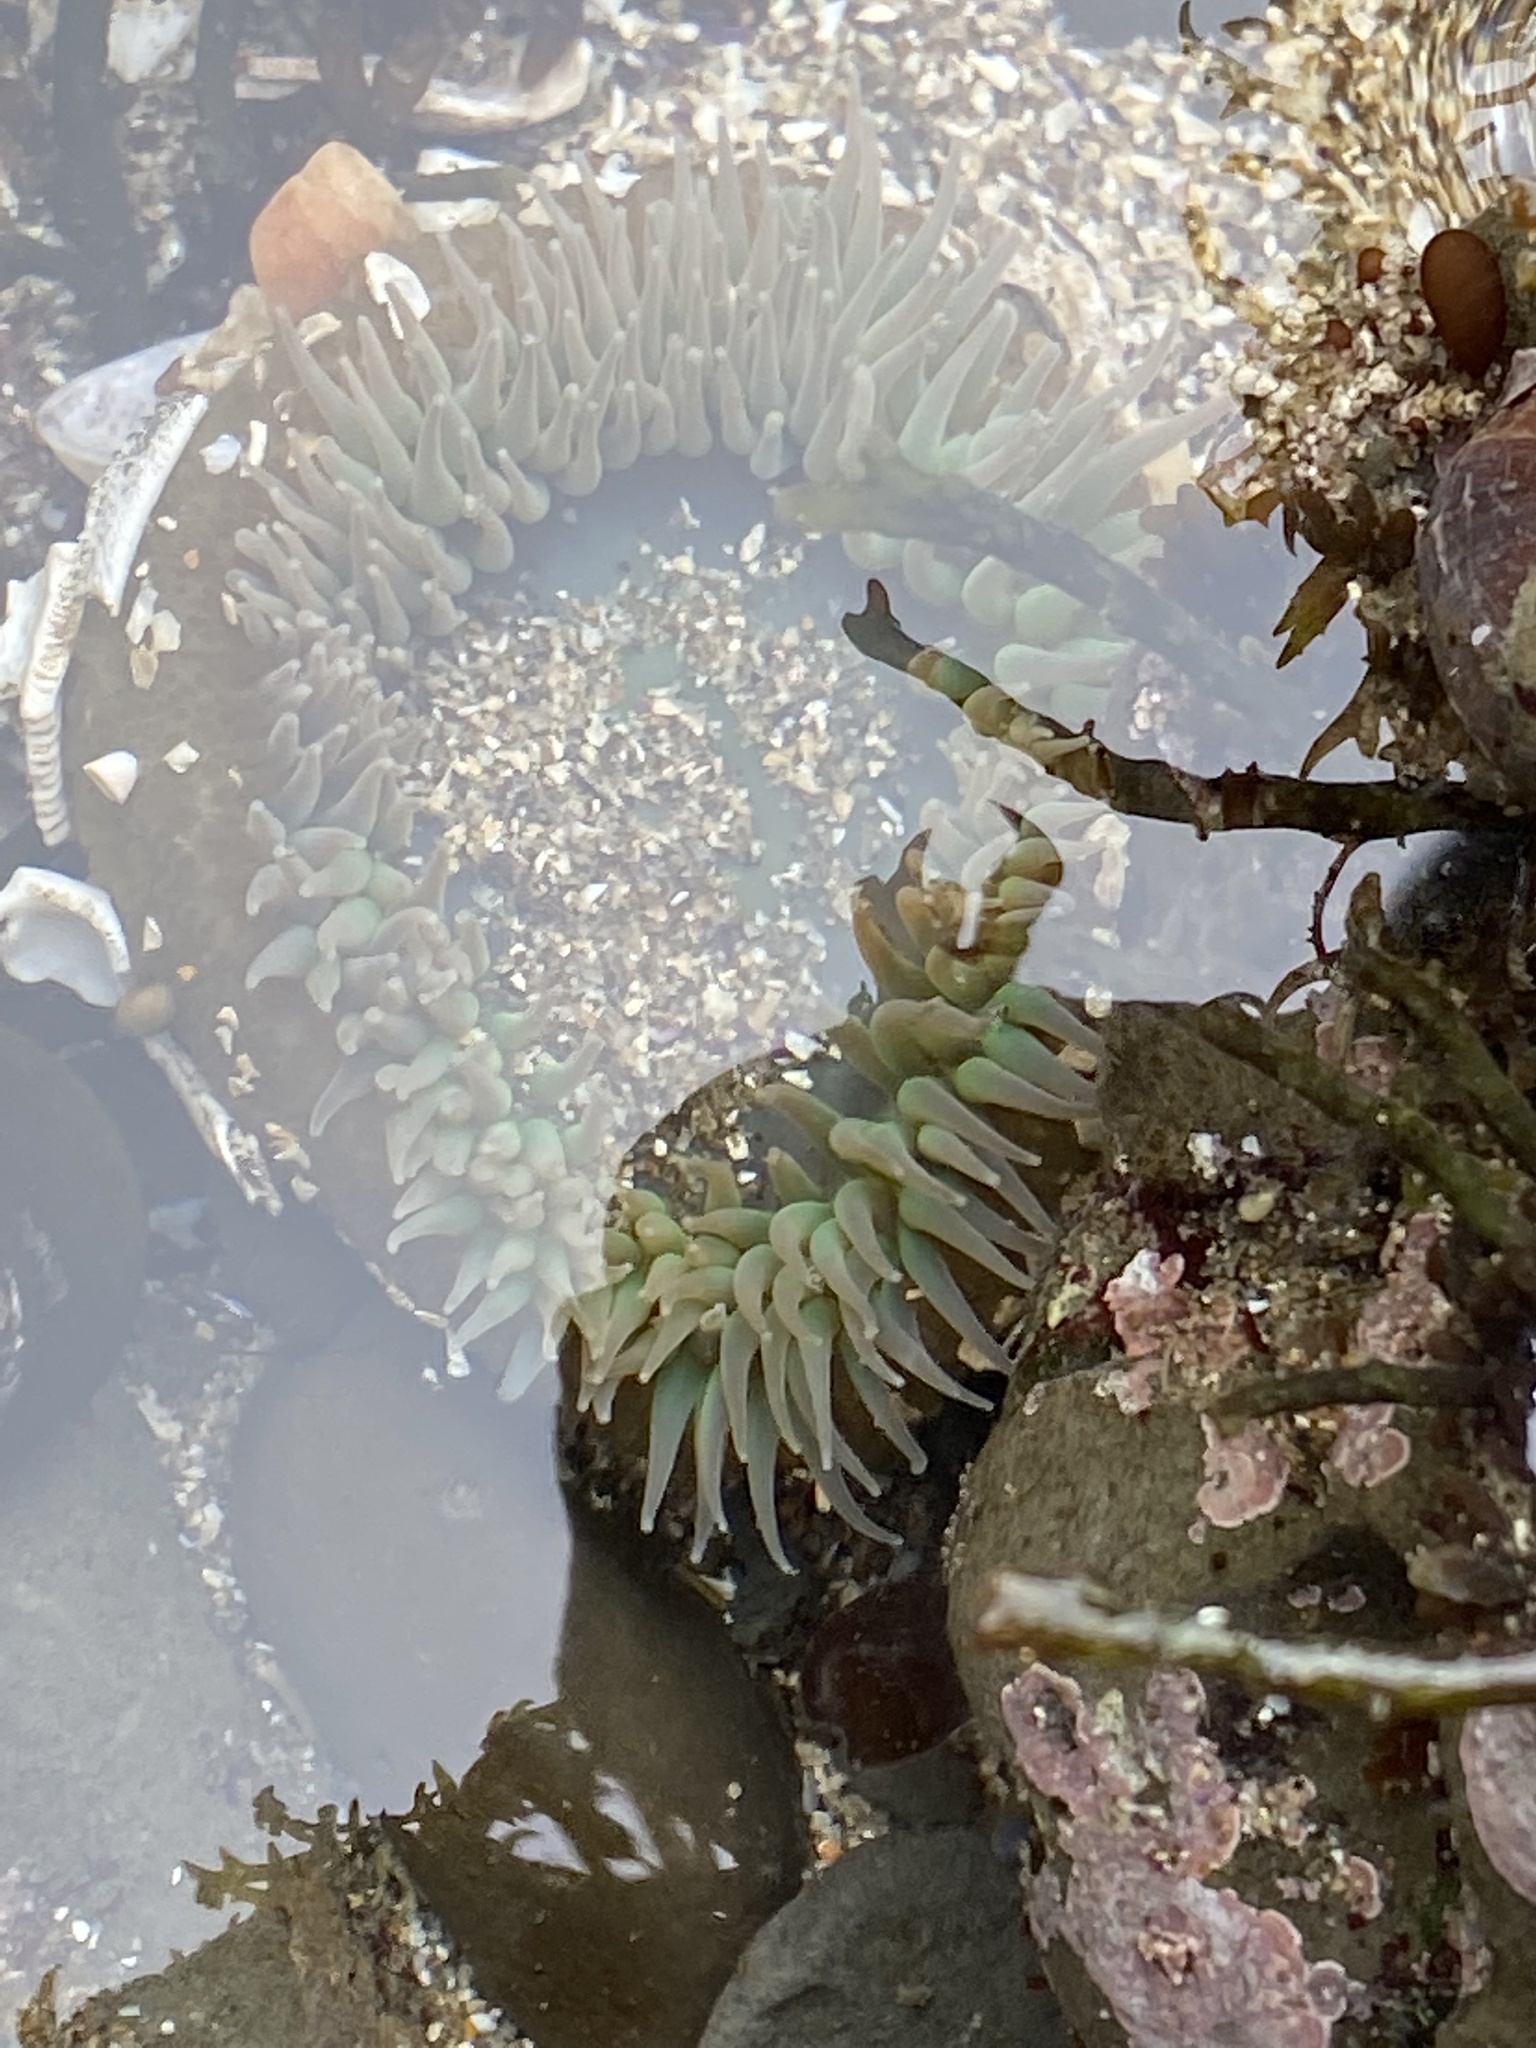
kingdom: Animalia
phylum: Cnidaria
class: Anthozoa
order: Actiniaria
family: Actiniidae
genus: Anthopleura
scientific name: Anthopleura xanthogrammica
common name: Giant green anemone
